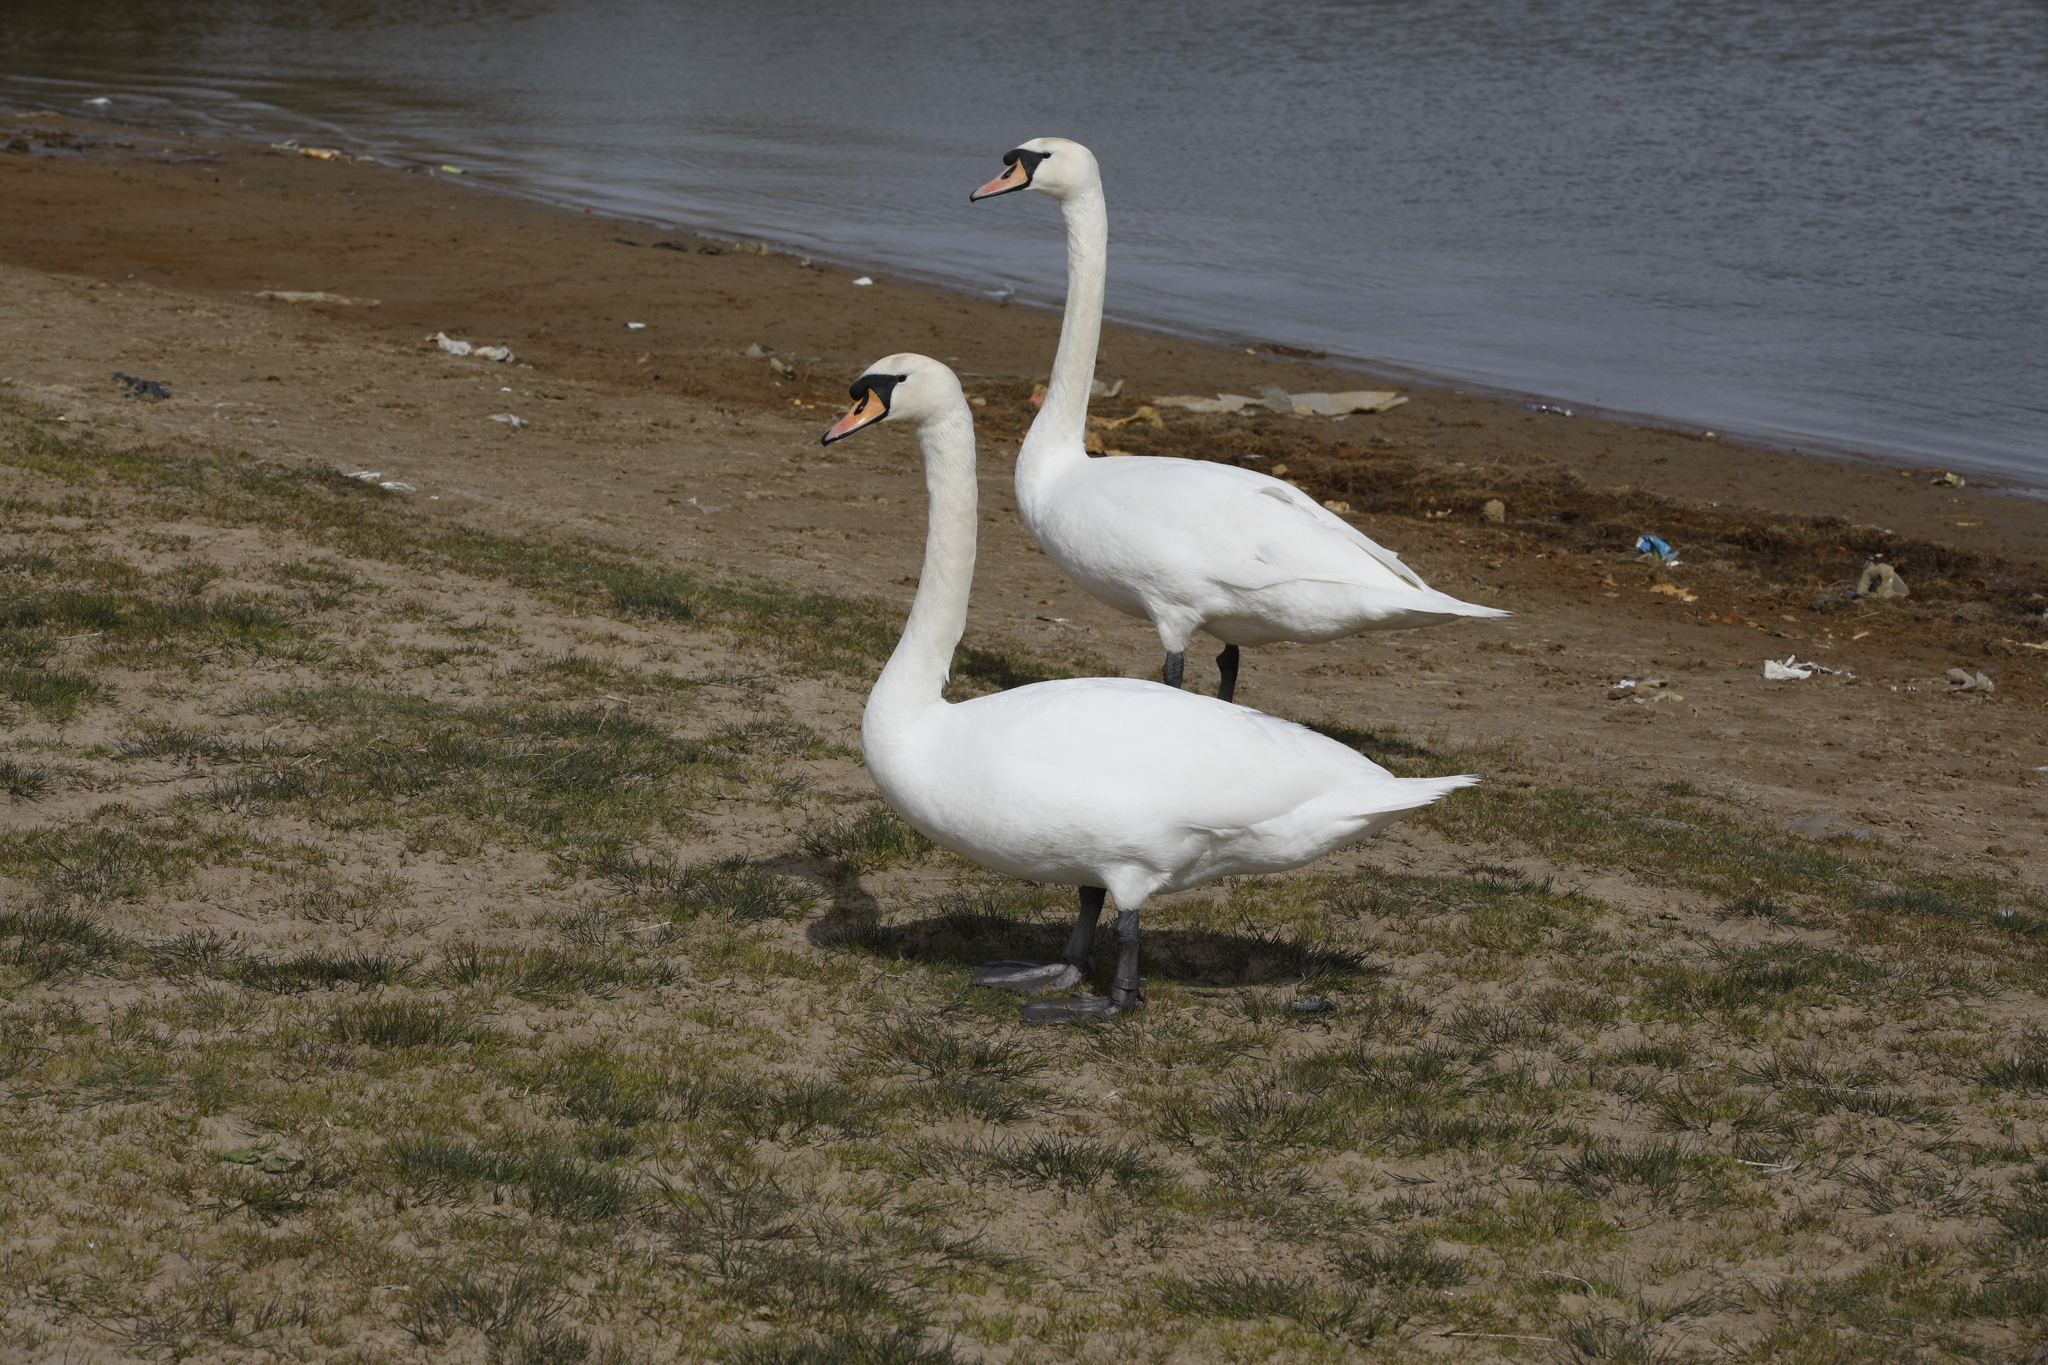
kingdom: Animalia
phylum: Chordata
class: Aves
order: Anseriformes
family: Anatidae
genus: Cygnus
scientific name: Cygnus olor
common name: Mute swan
